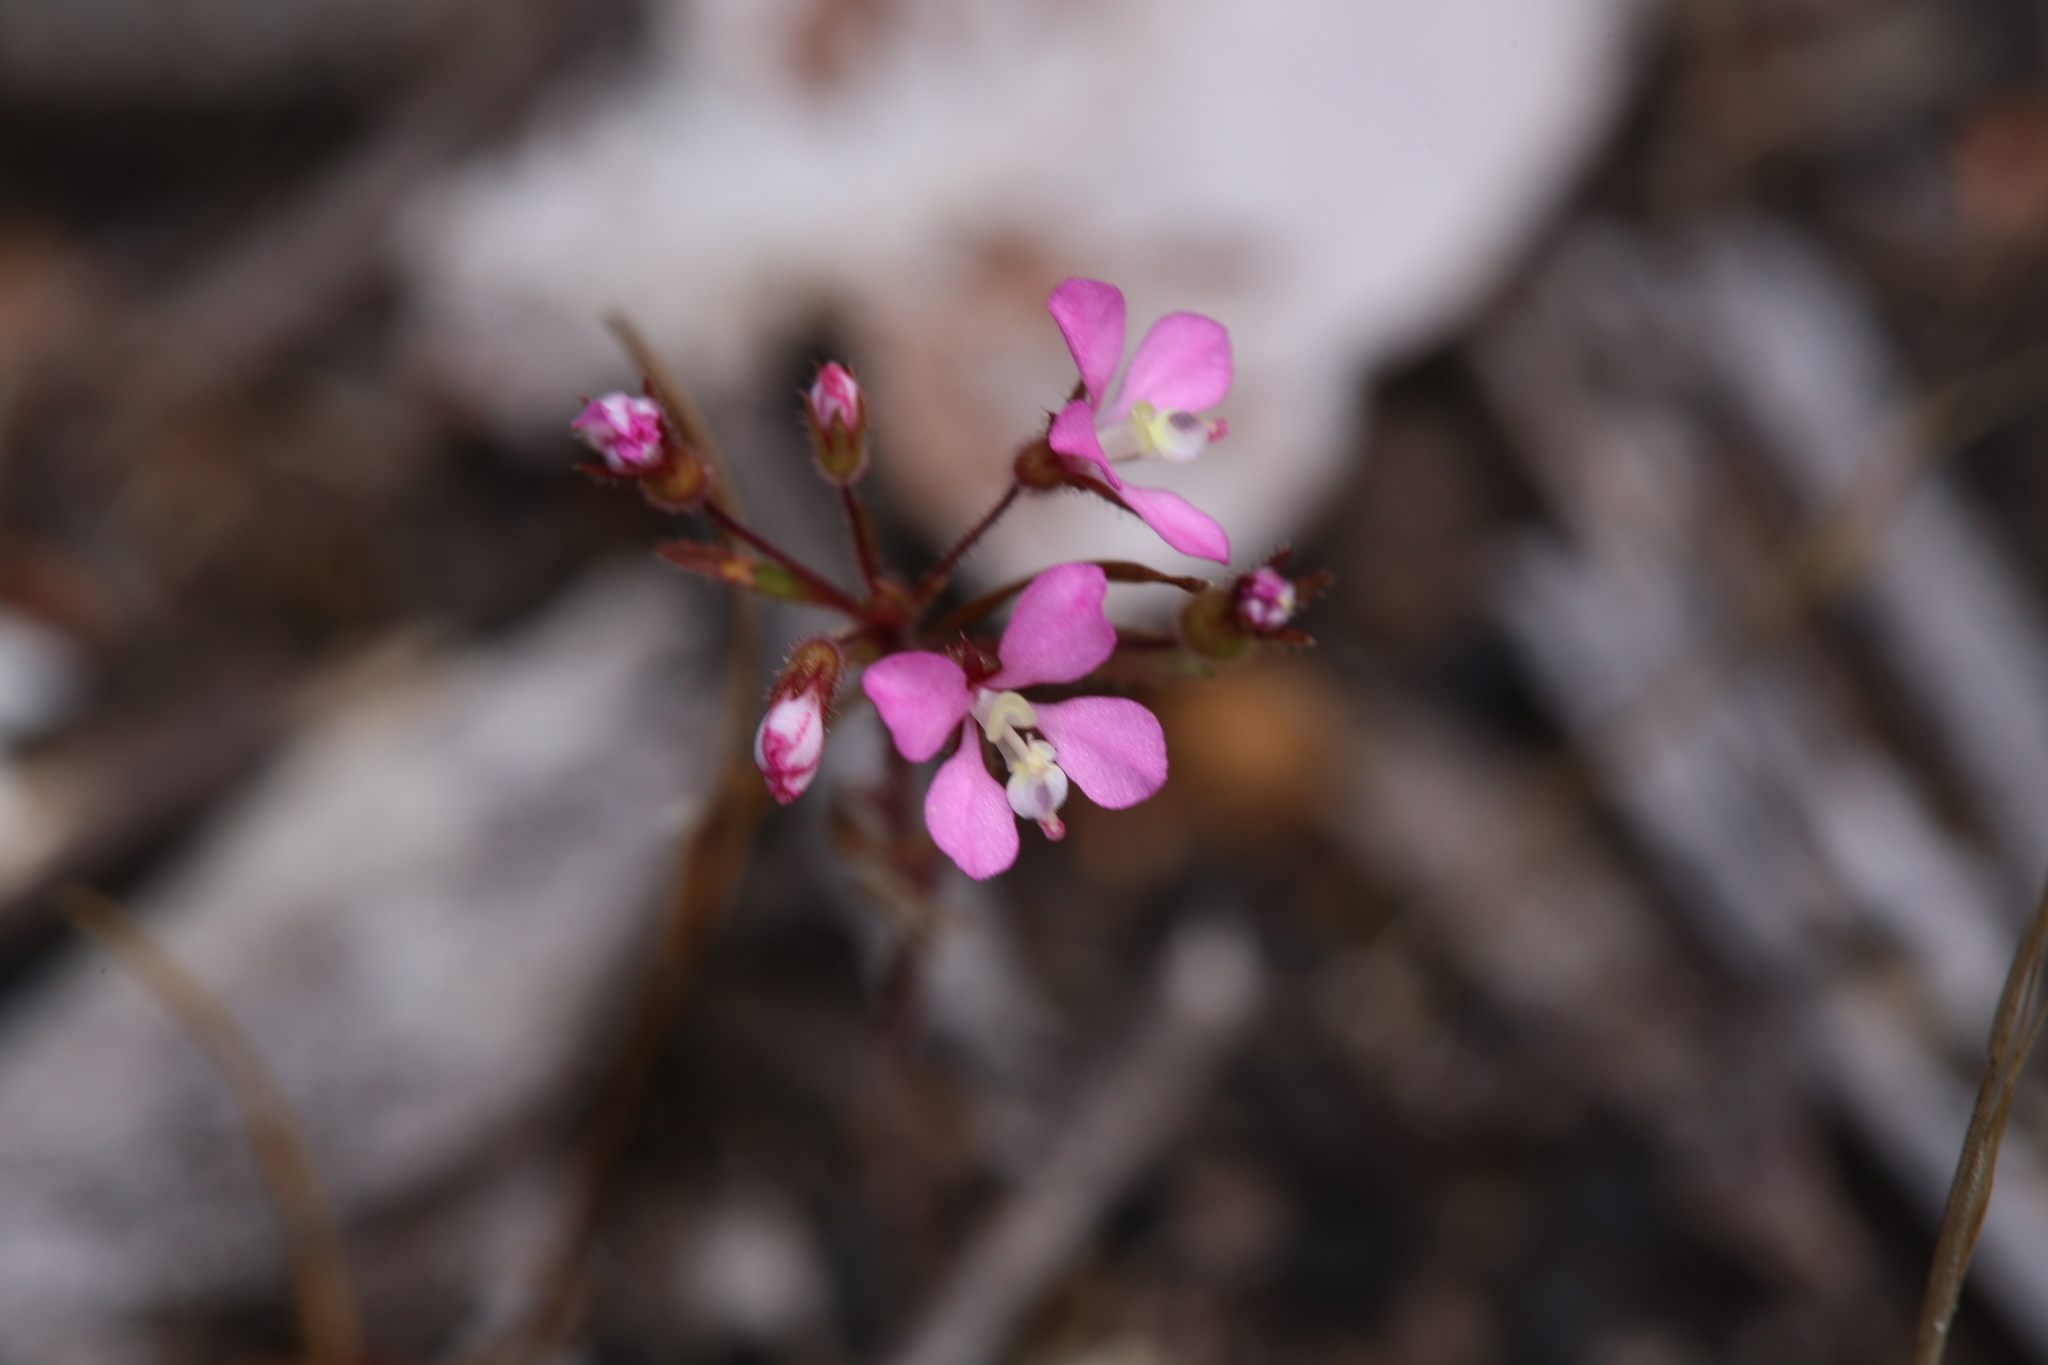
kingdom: Plantae
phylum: Tracheophyta
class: Magnoliopsida
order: Asterales
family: Stylidiaceae
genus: Levenhookia
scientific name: Levenhookia stipitata
